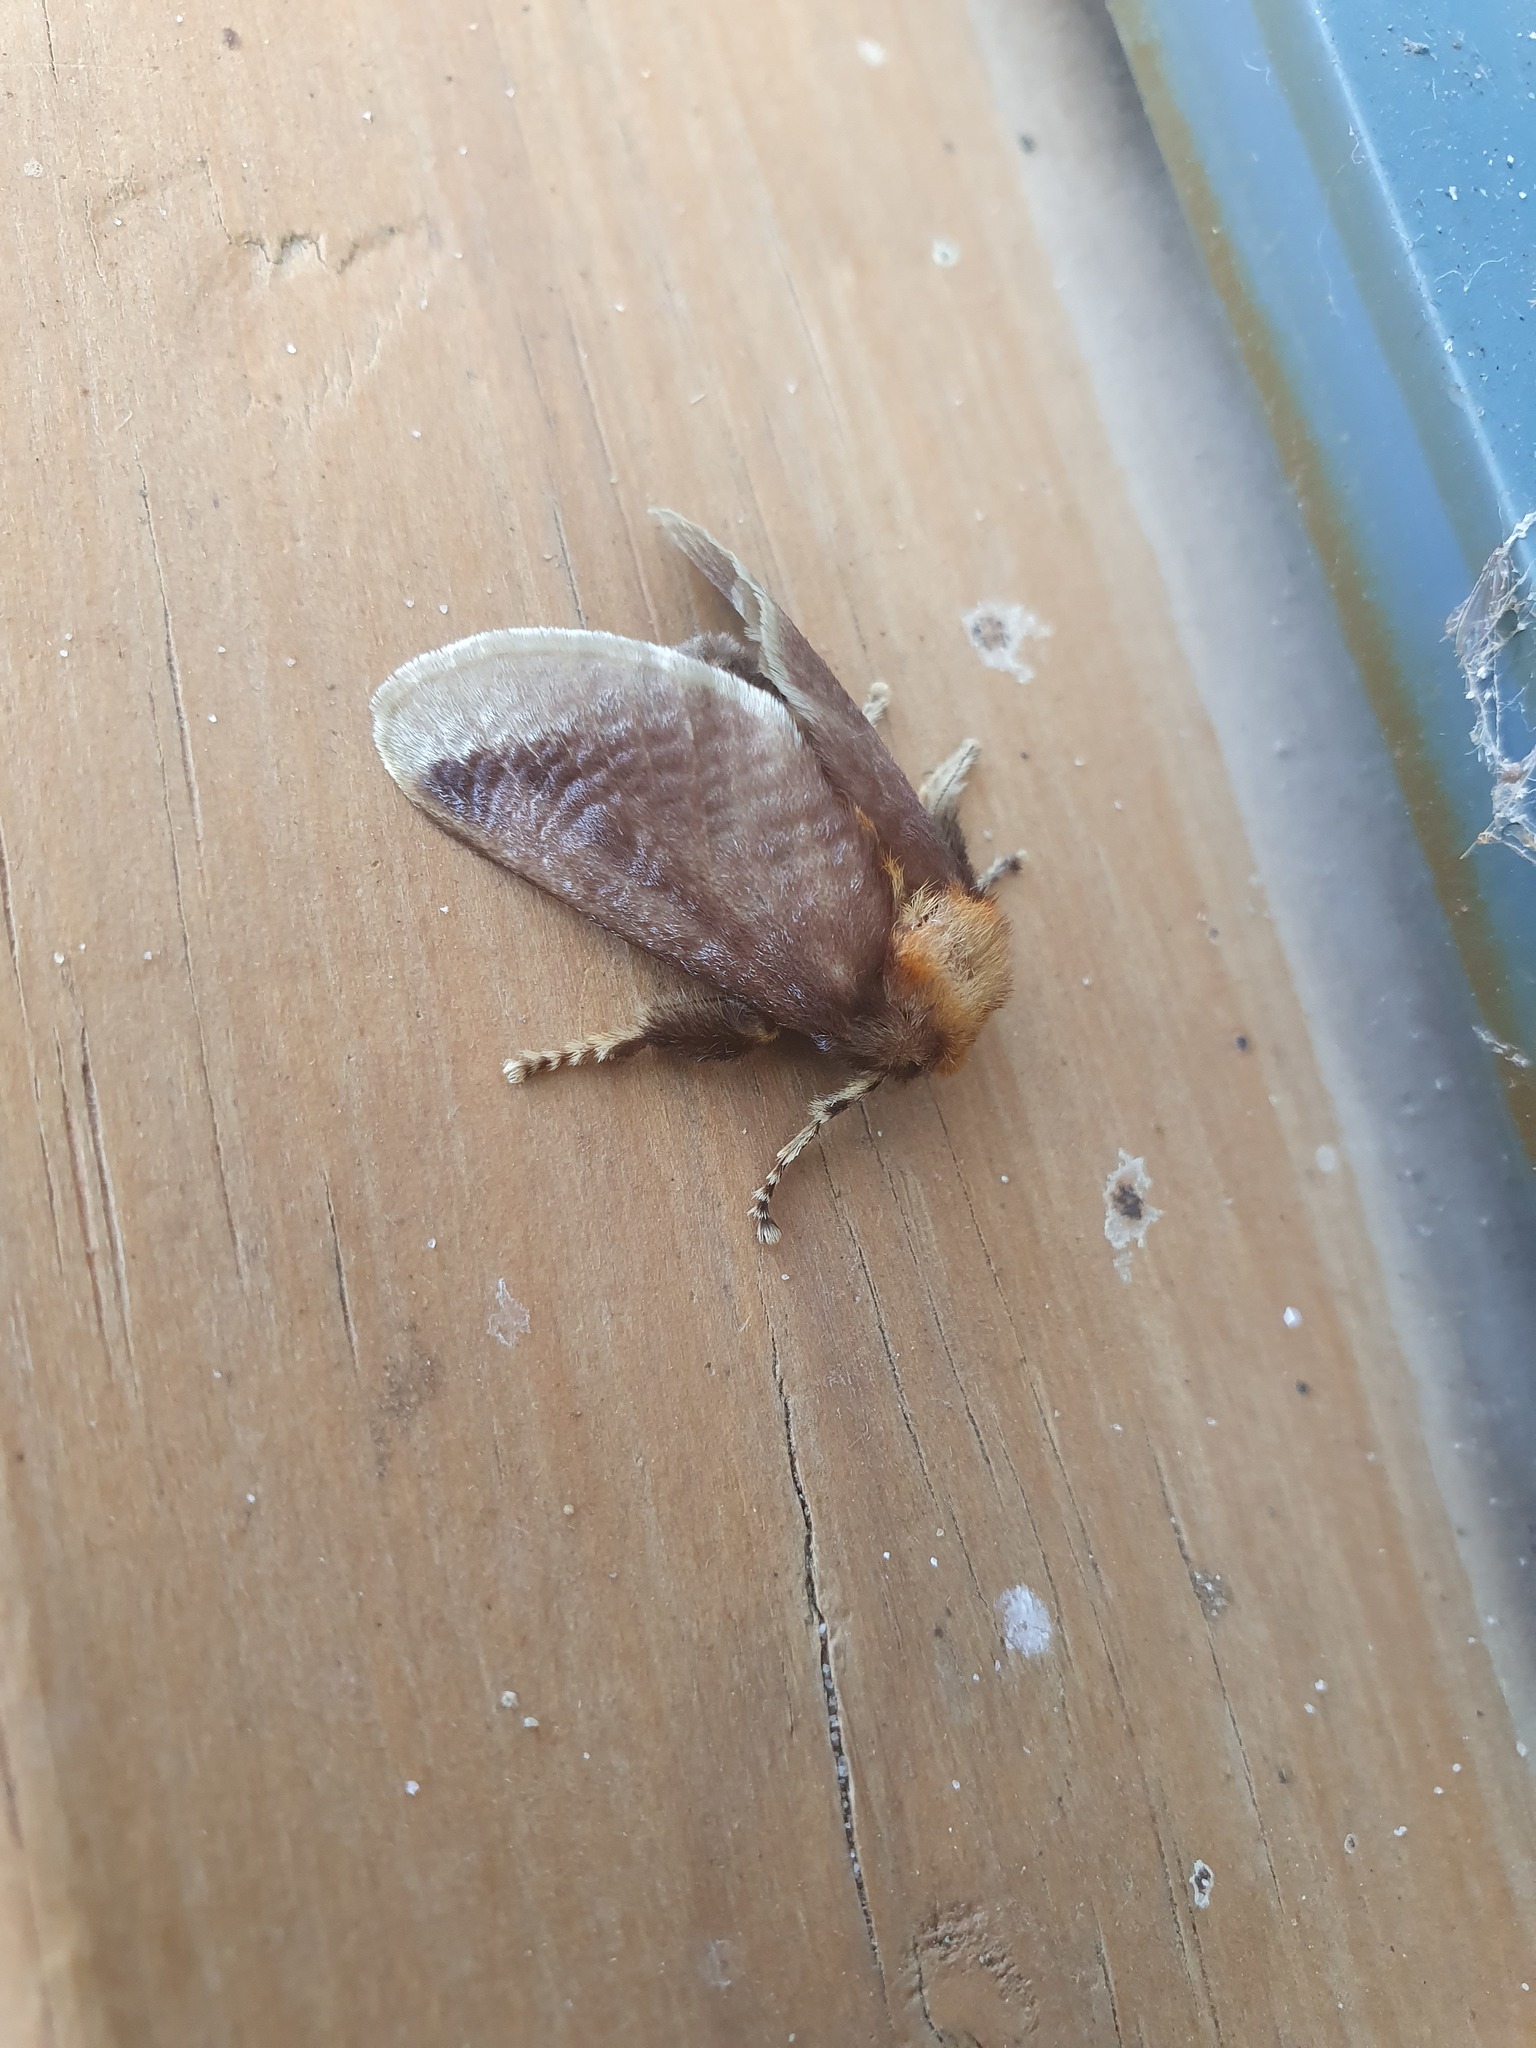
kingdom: Animalia
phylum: Arthropoda
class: Insecta
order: Lepidoptera
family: Limacodidae
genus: Doratifera
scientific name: Doratifera oxleyi
